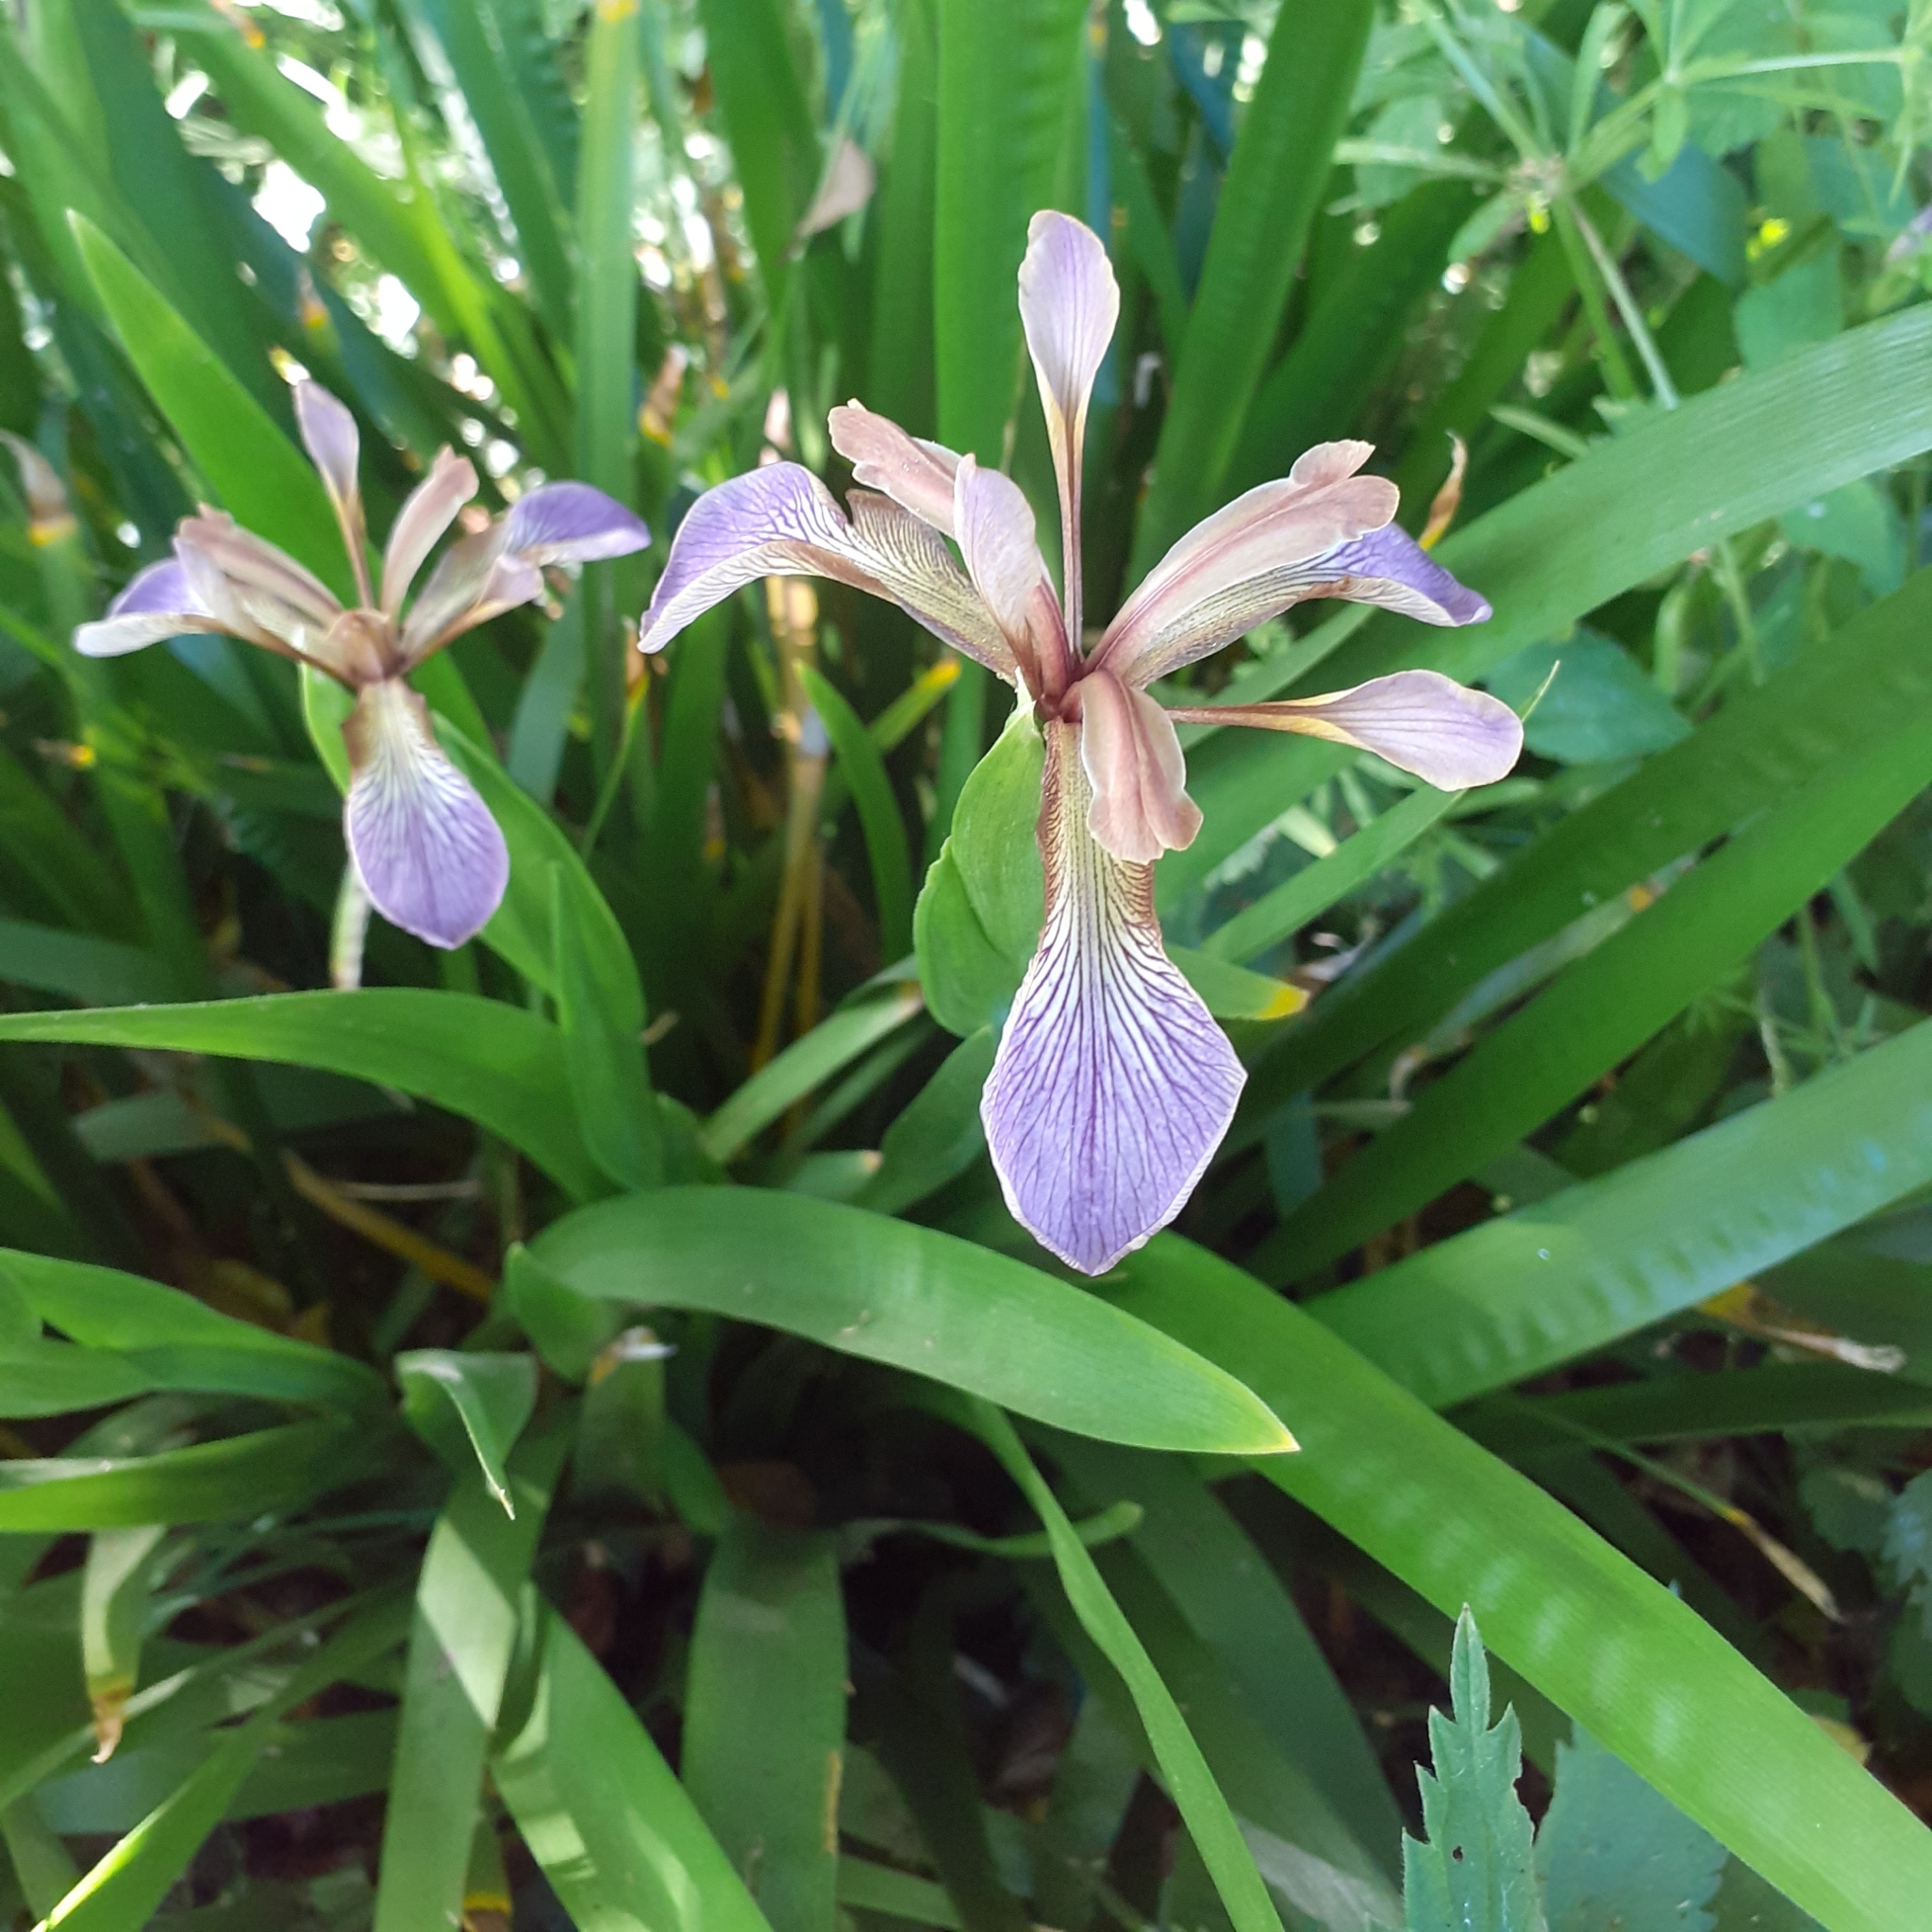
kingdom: Plantae
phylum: Tracheophyta
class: Liliopsida
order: Asparagales
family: Iridaceae
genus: Iris
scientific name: Iris foetidissima
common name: Stinking iris
